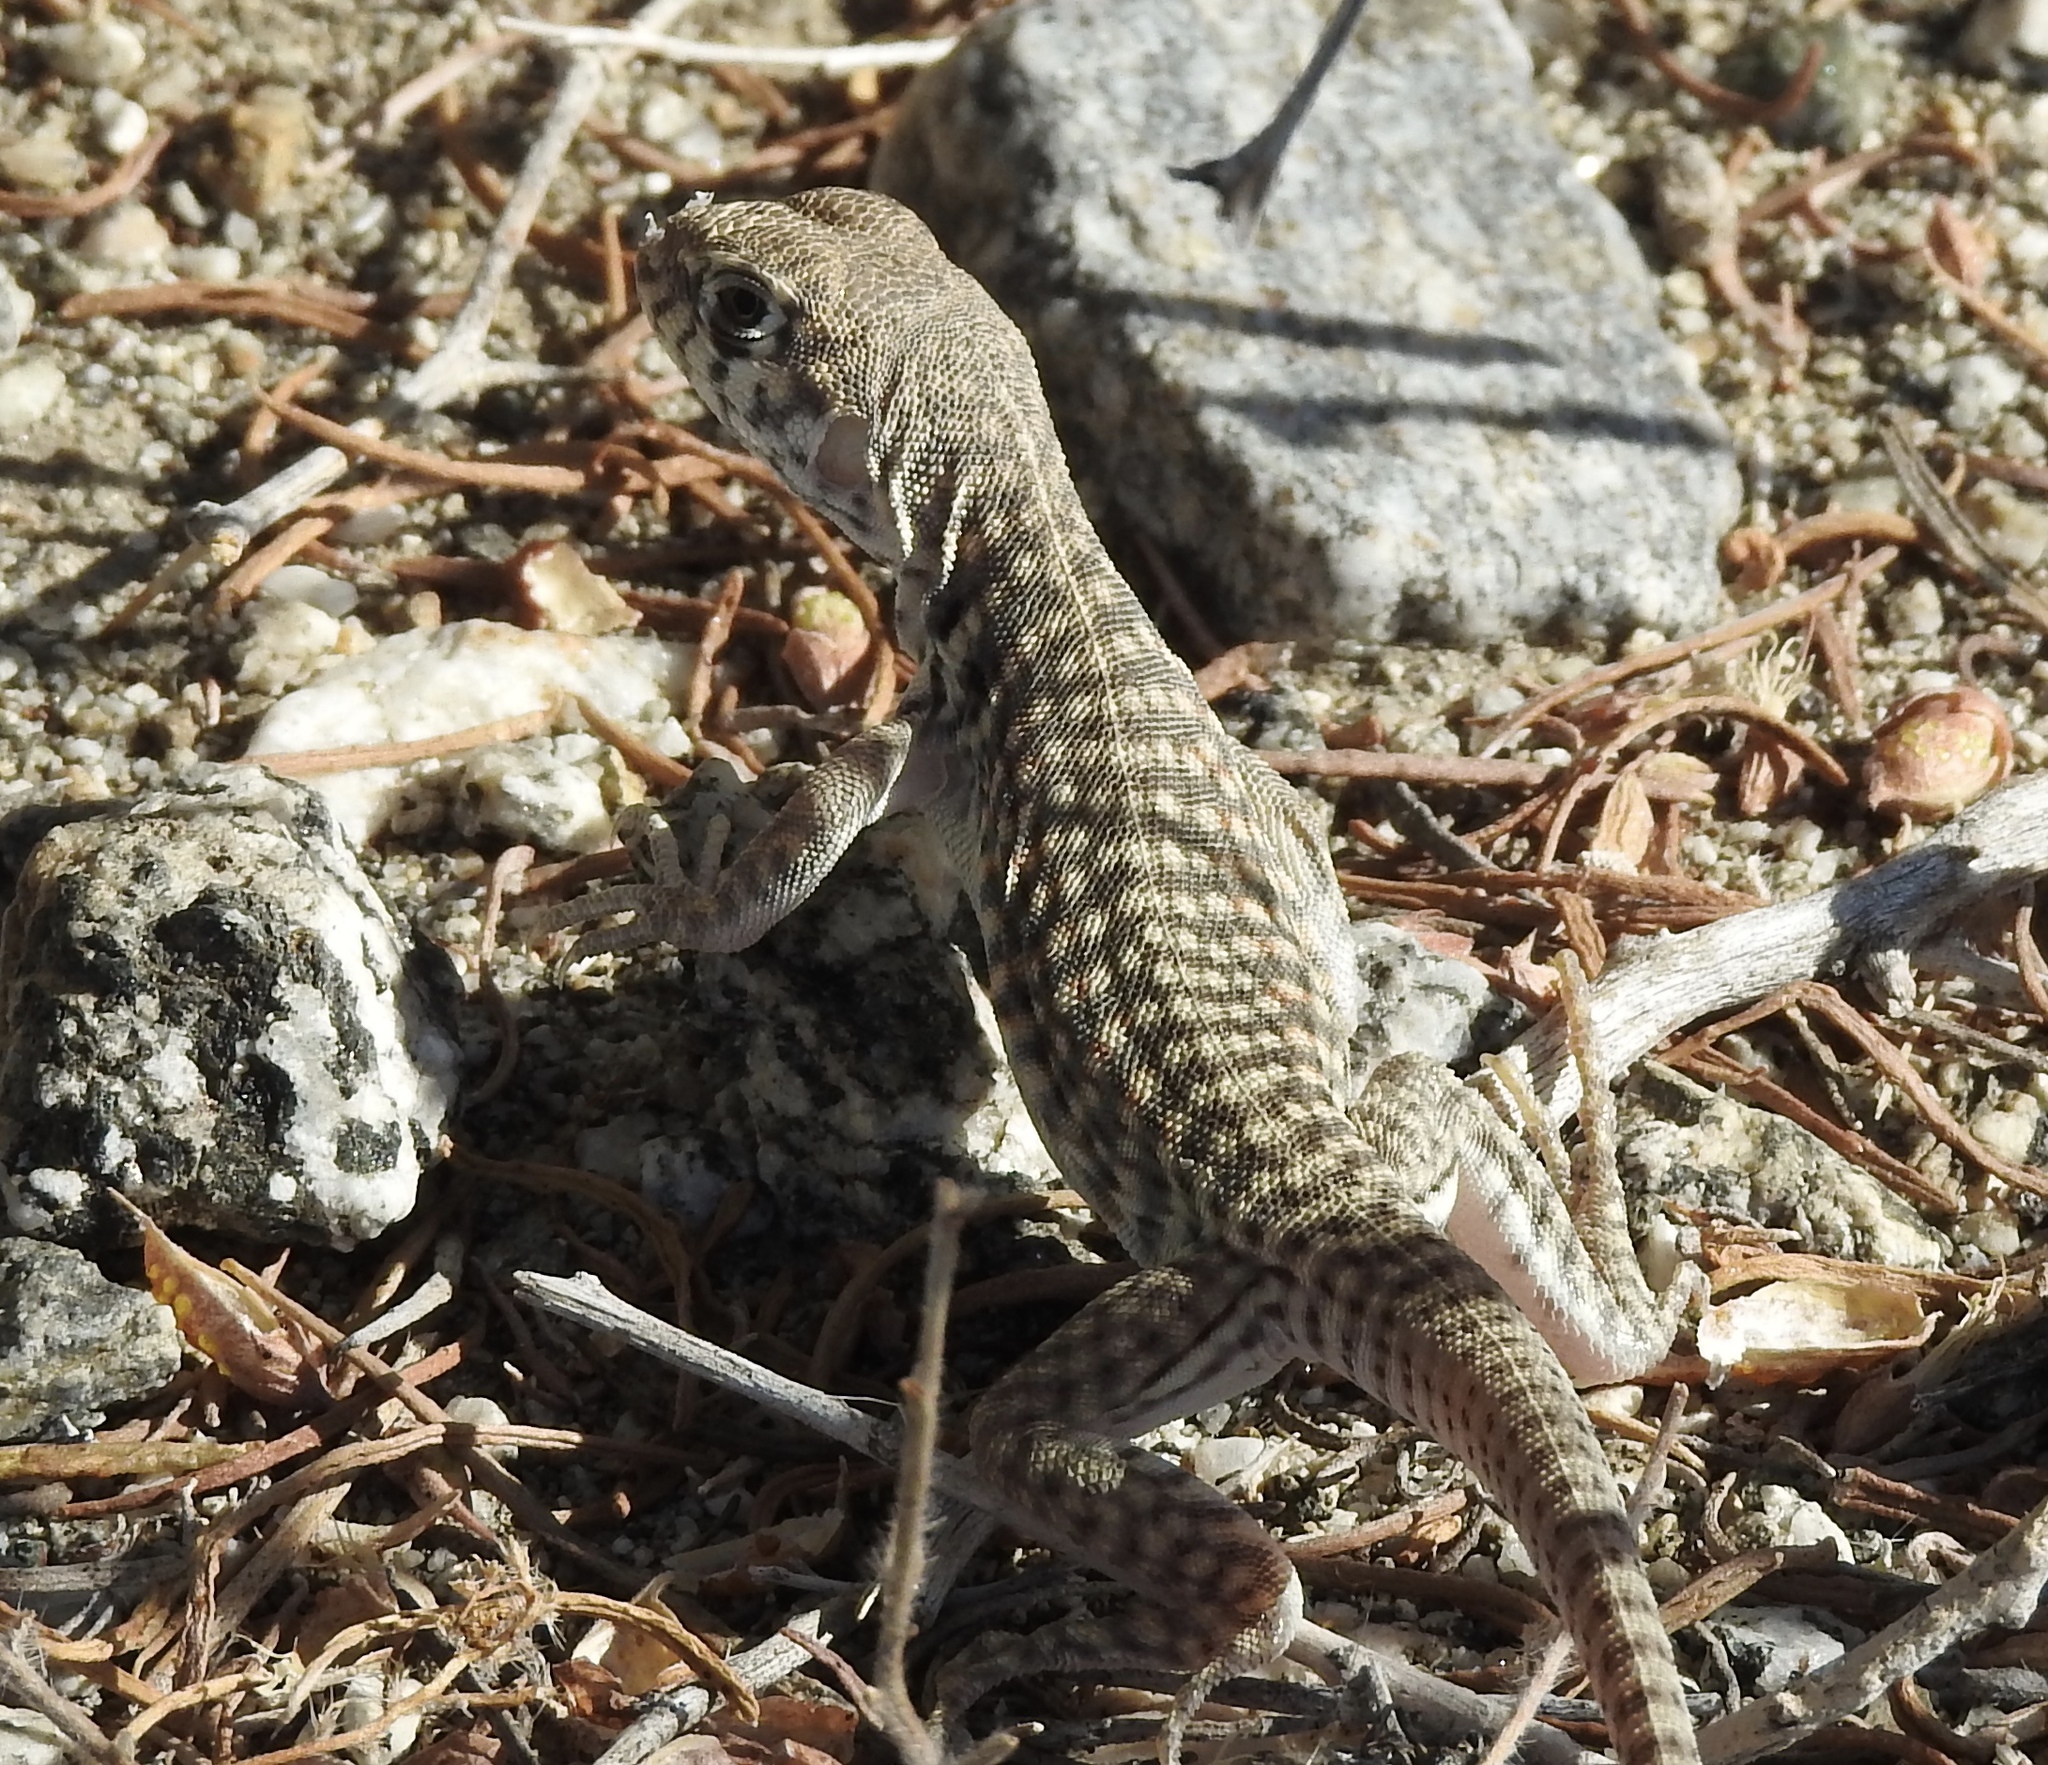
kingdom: Animalia
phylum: Chordata
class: Squamata
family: Iguanidae
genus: Dipsosaurus
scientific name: Dipsosaurus dorsalis
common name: Desert iguana
